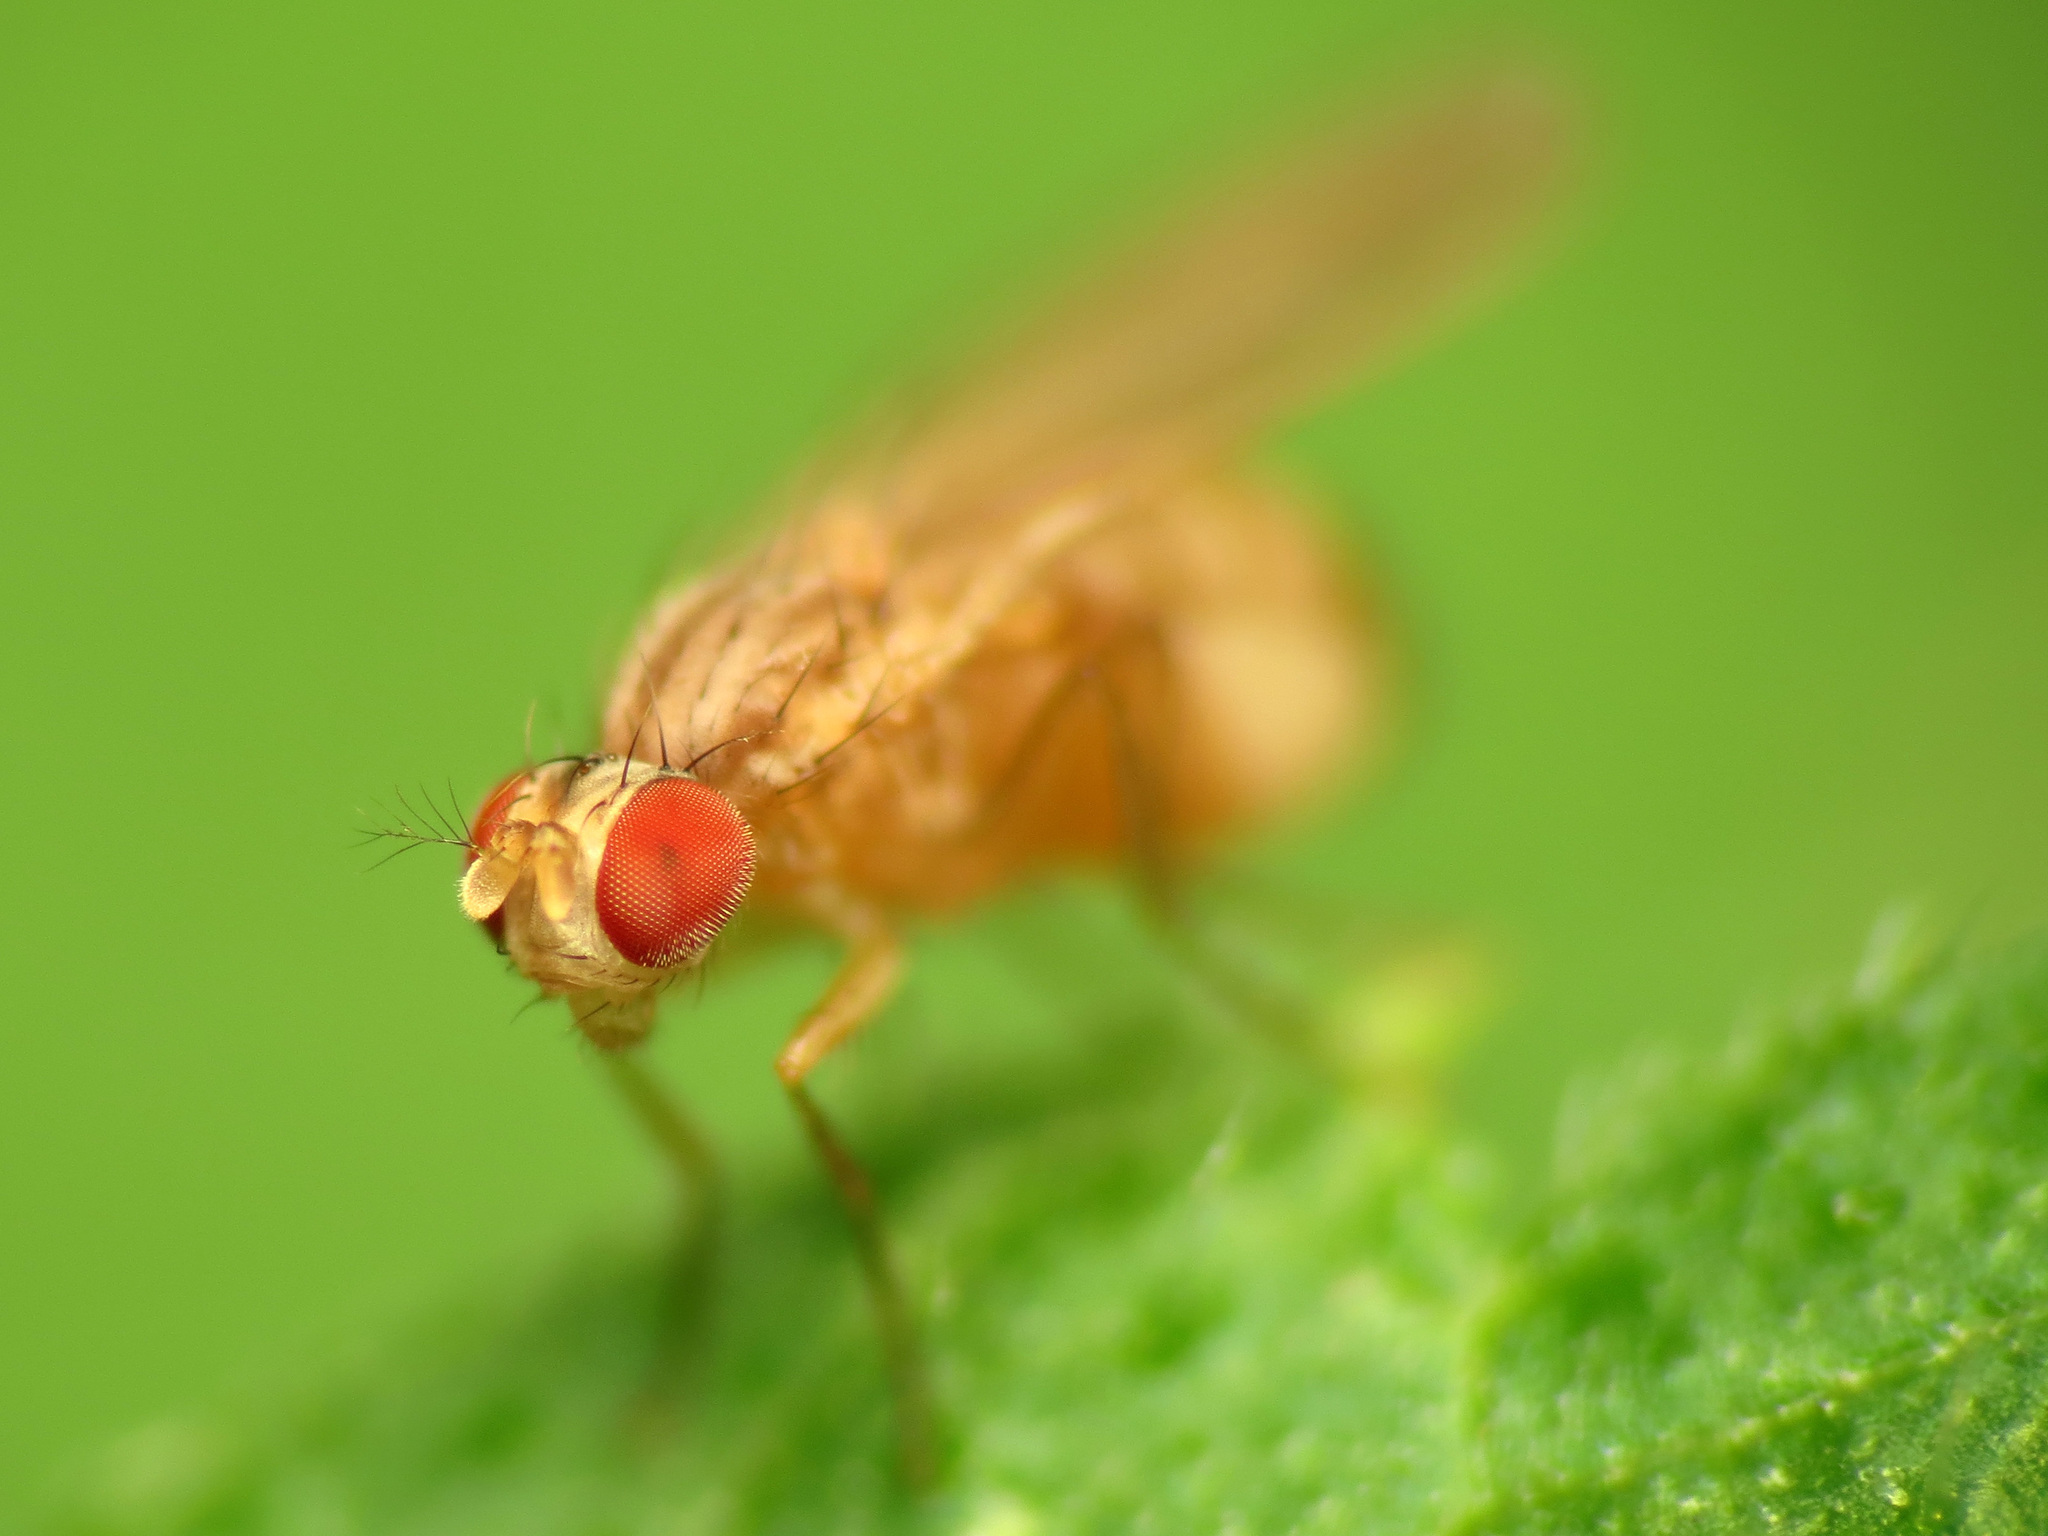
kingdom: Animalia
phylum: Arthropoda
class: Insecta
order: Diptera
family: Drosophilidae
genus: Scaptomyza
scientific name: Scaptomyza pallida
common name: Pomace fly
